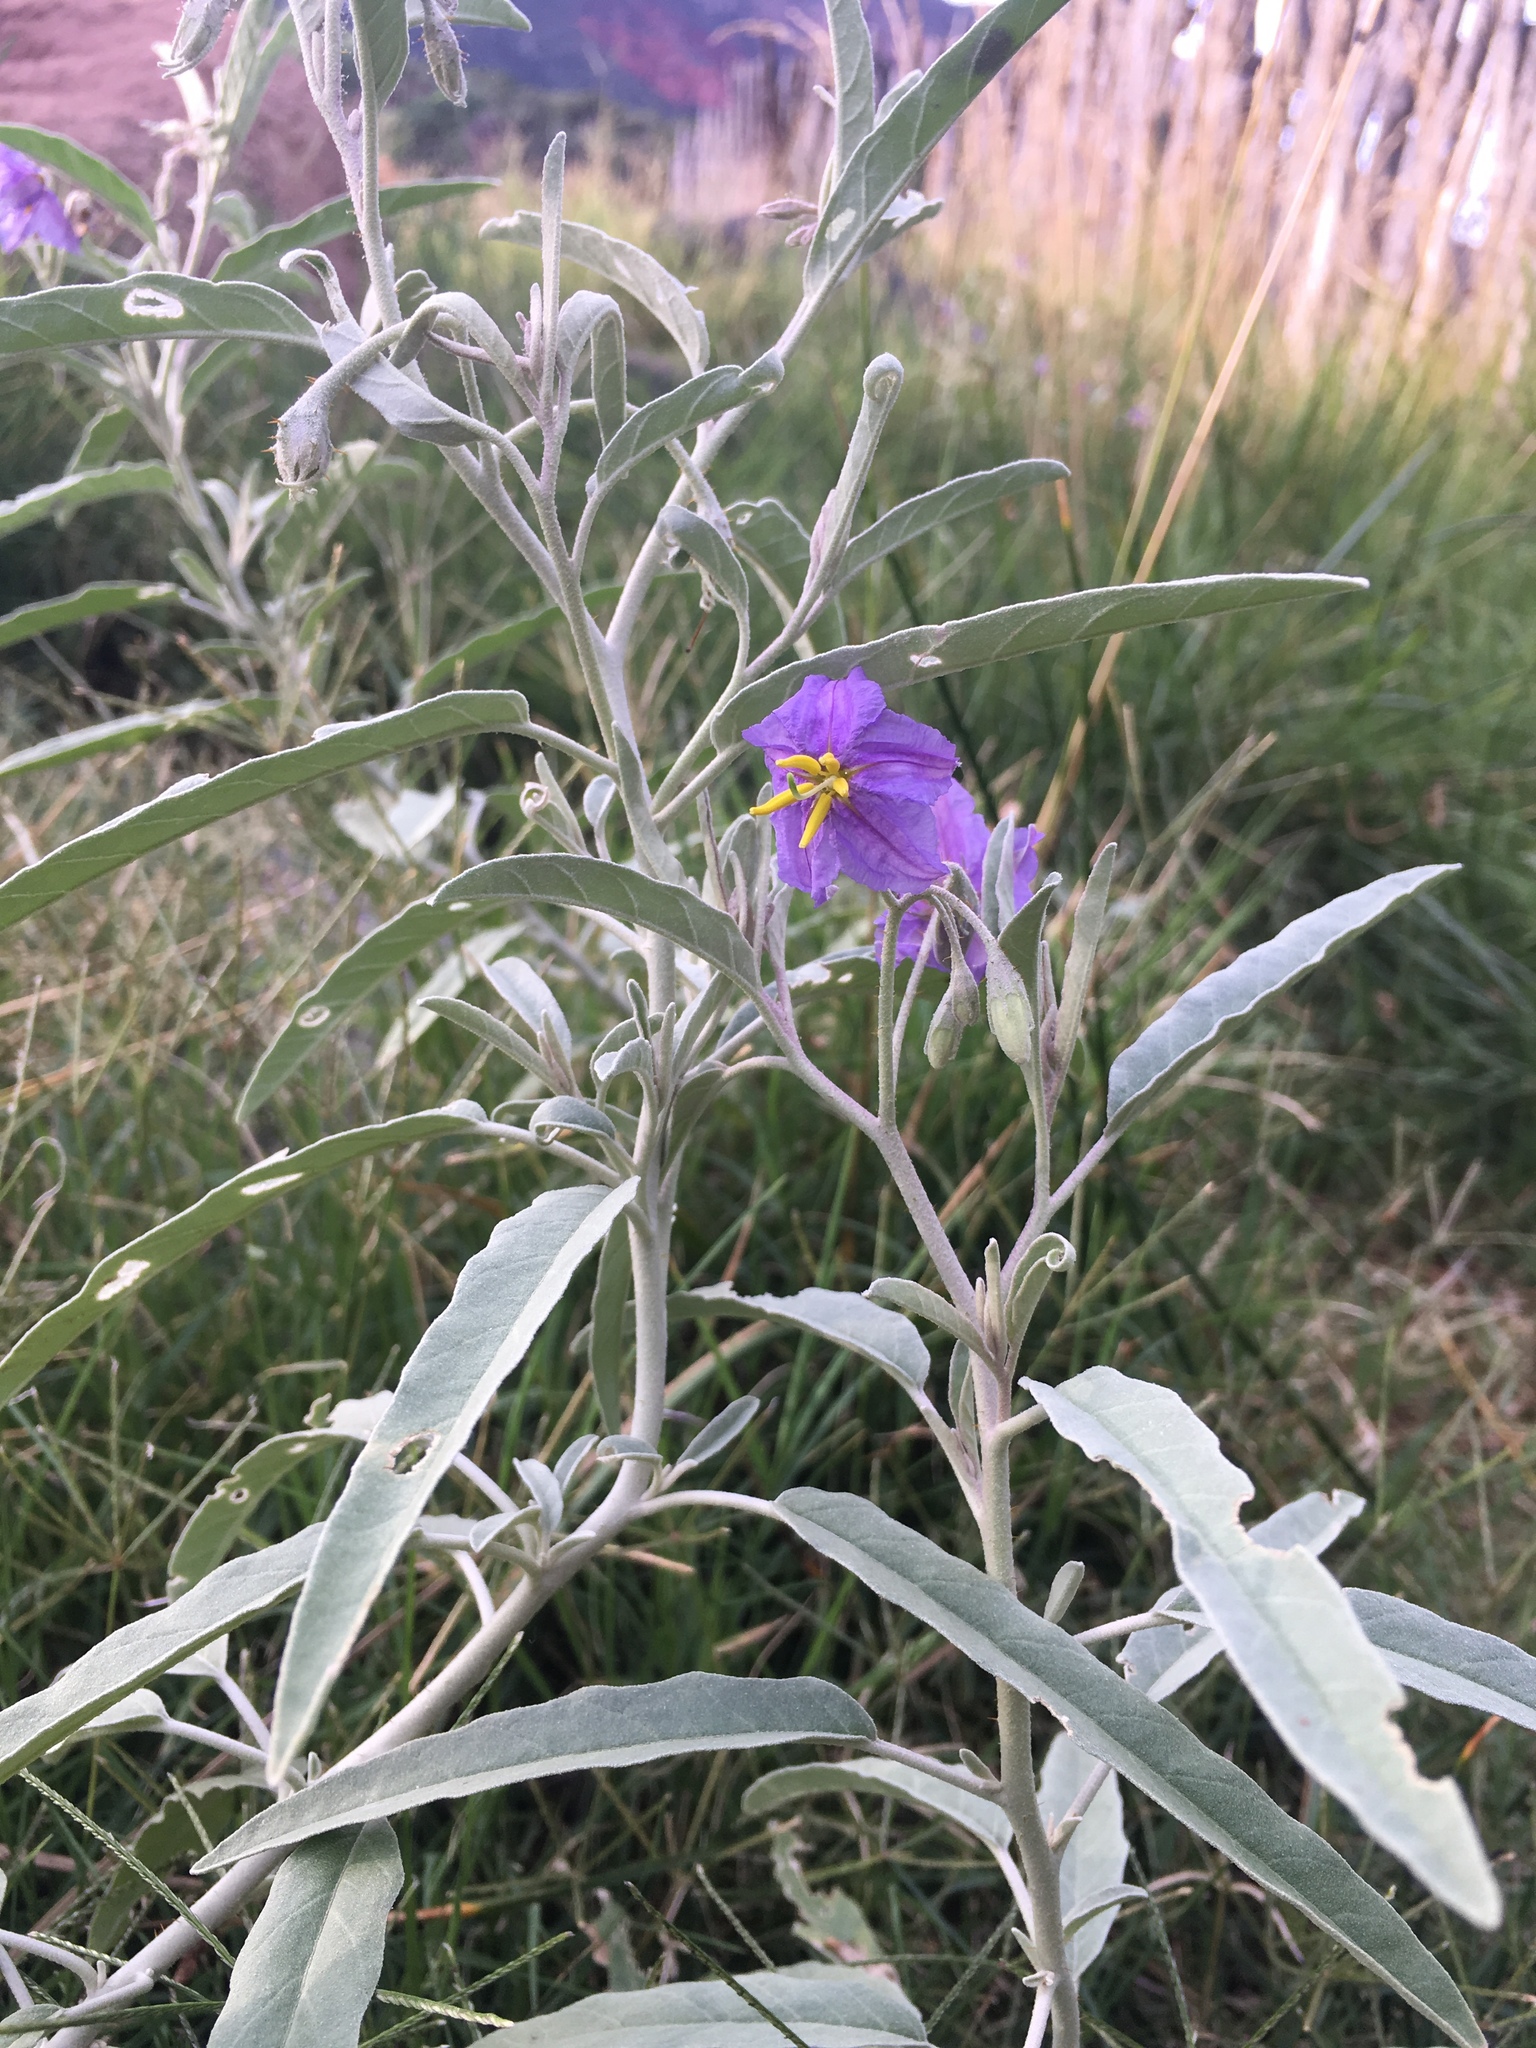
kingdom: Plantae
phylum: Tracheophyta
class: Magnoliopsida
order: Solanales
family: Solanaceae
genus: Solanum
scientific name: Solanum elaeagnifolium
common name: Silverleaf nightshade
